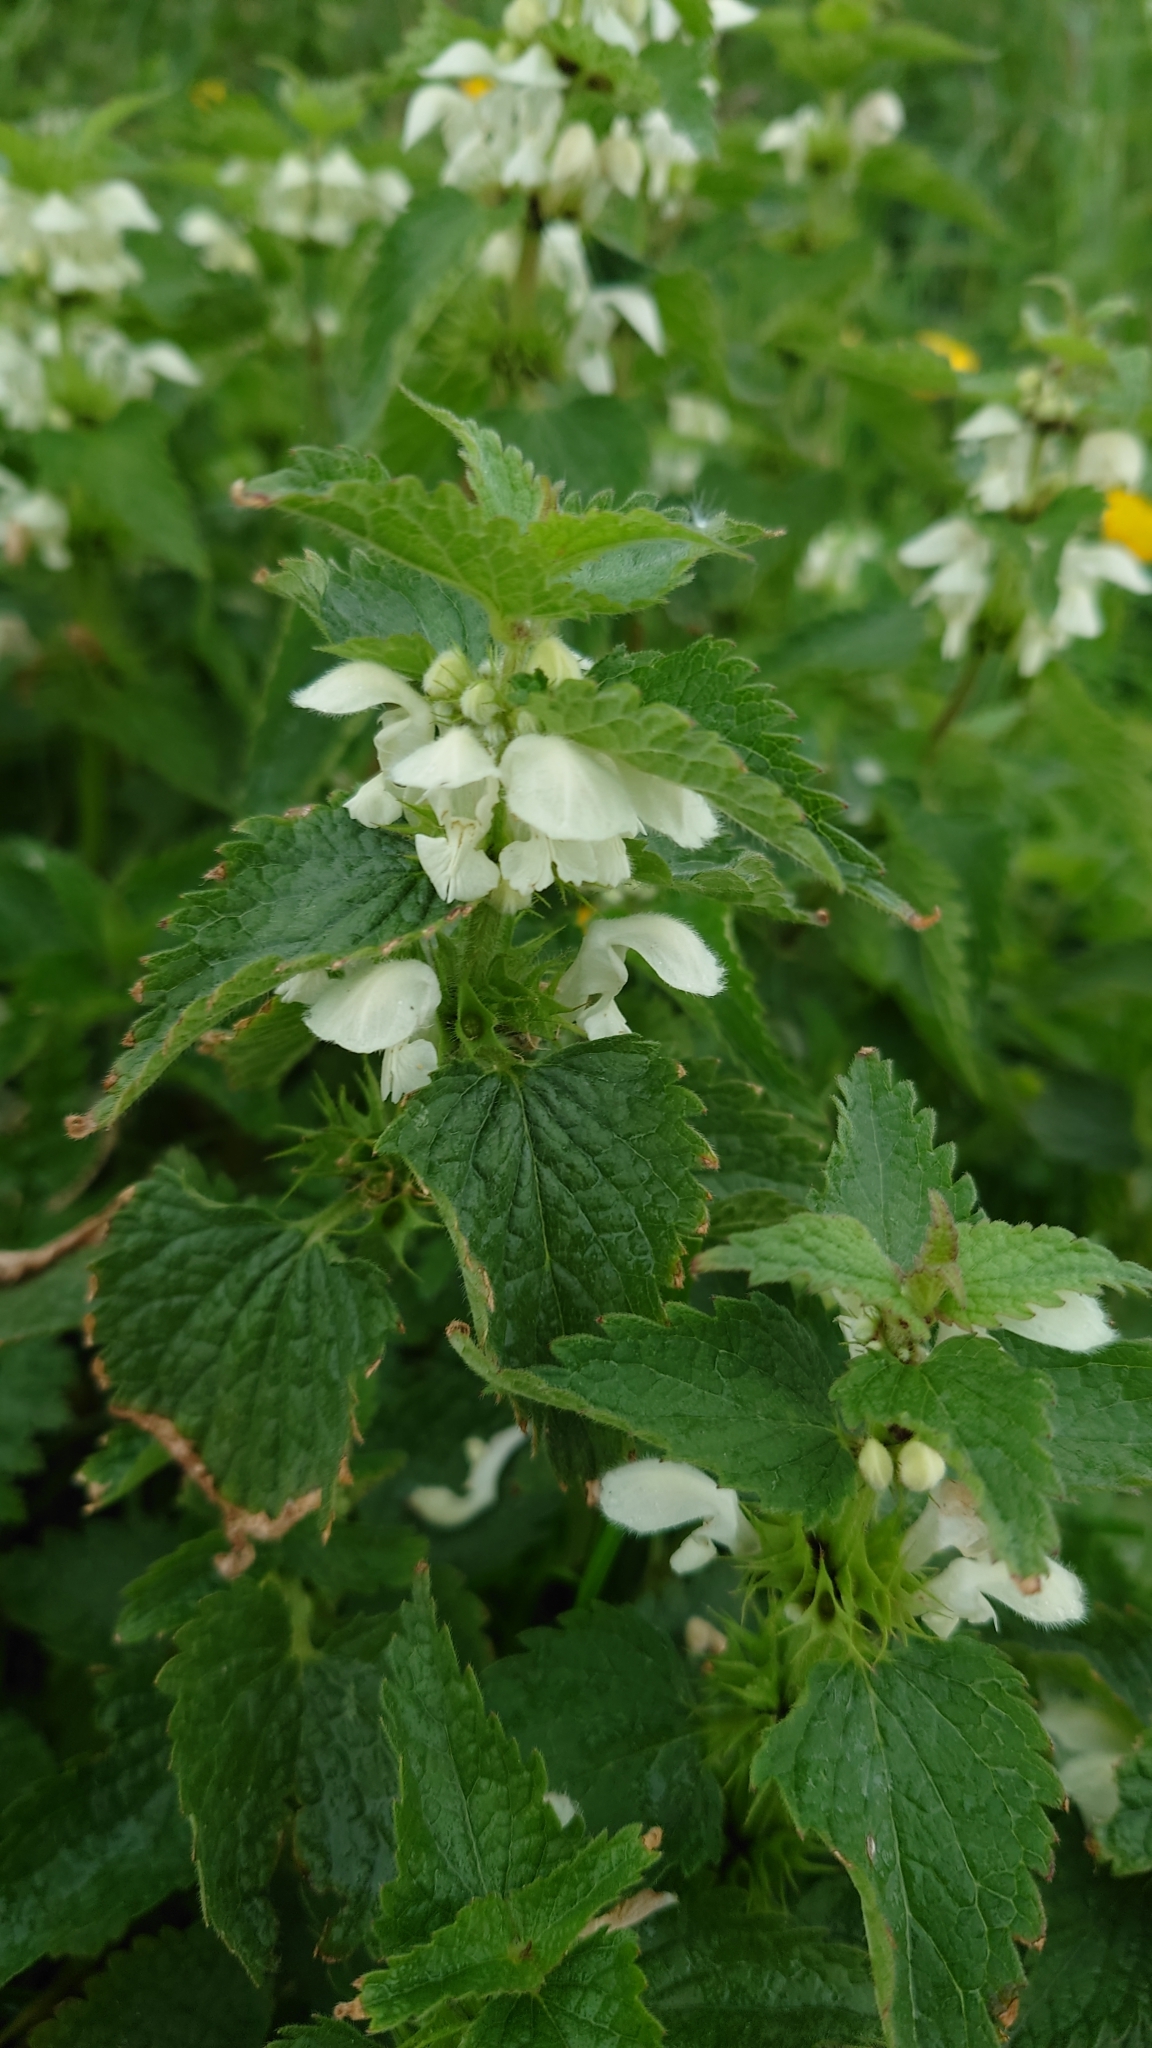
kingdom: Plantae
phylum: Tracheophyta
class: Magnoliopsida
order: Lamiales
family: Lamiaceae
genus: Lamium
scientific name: Lamium album
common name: White dead-nettle
